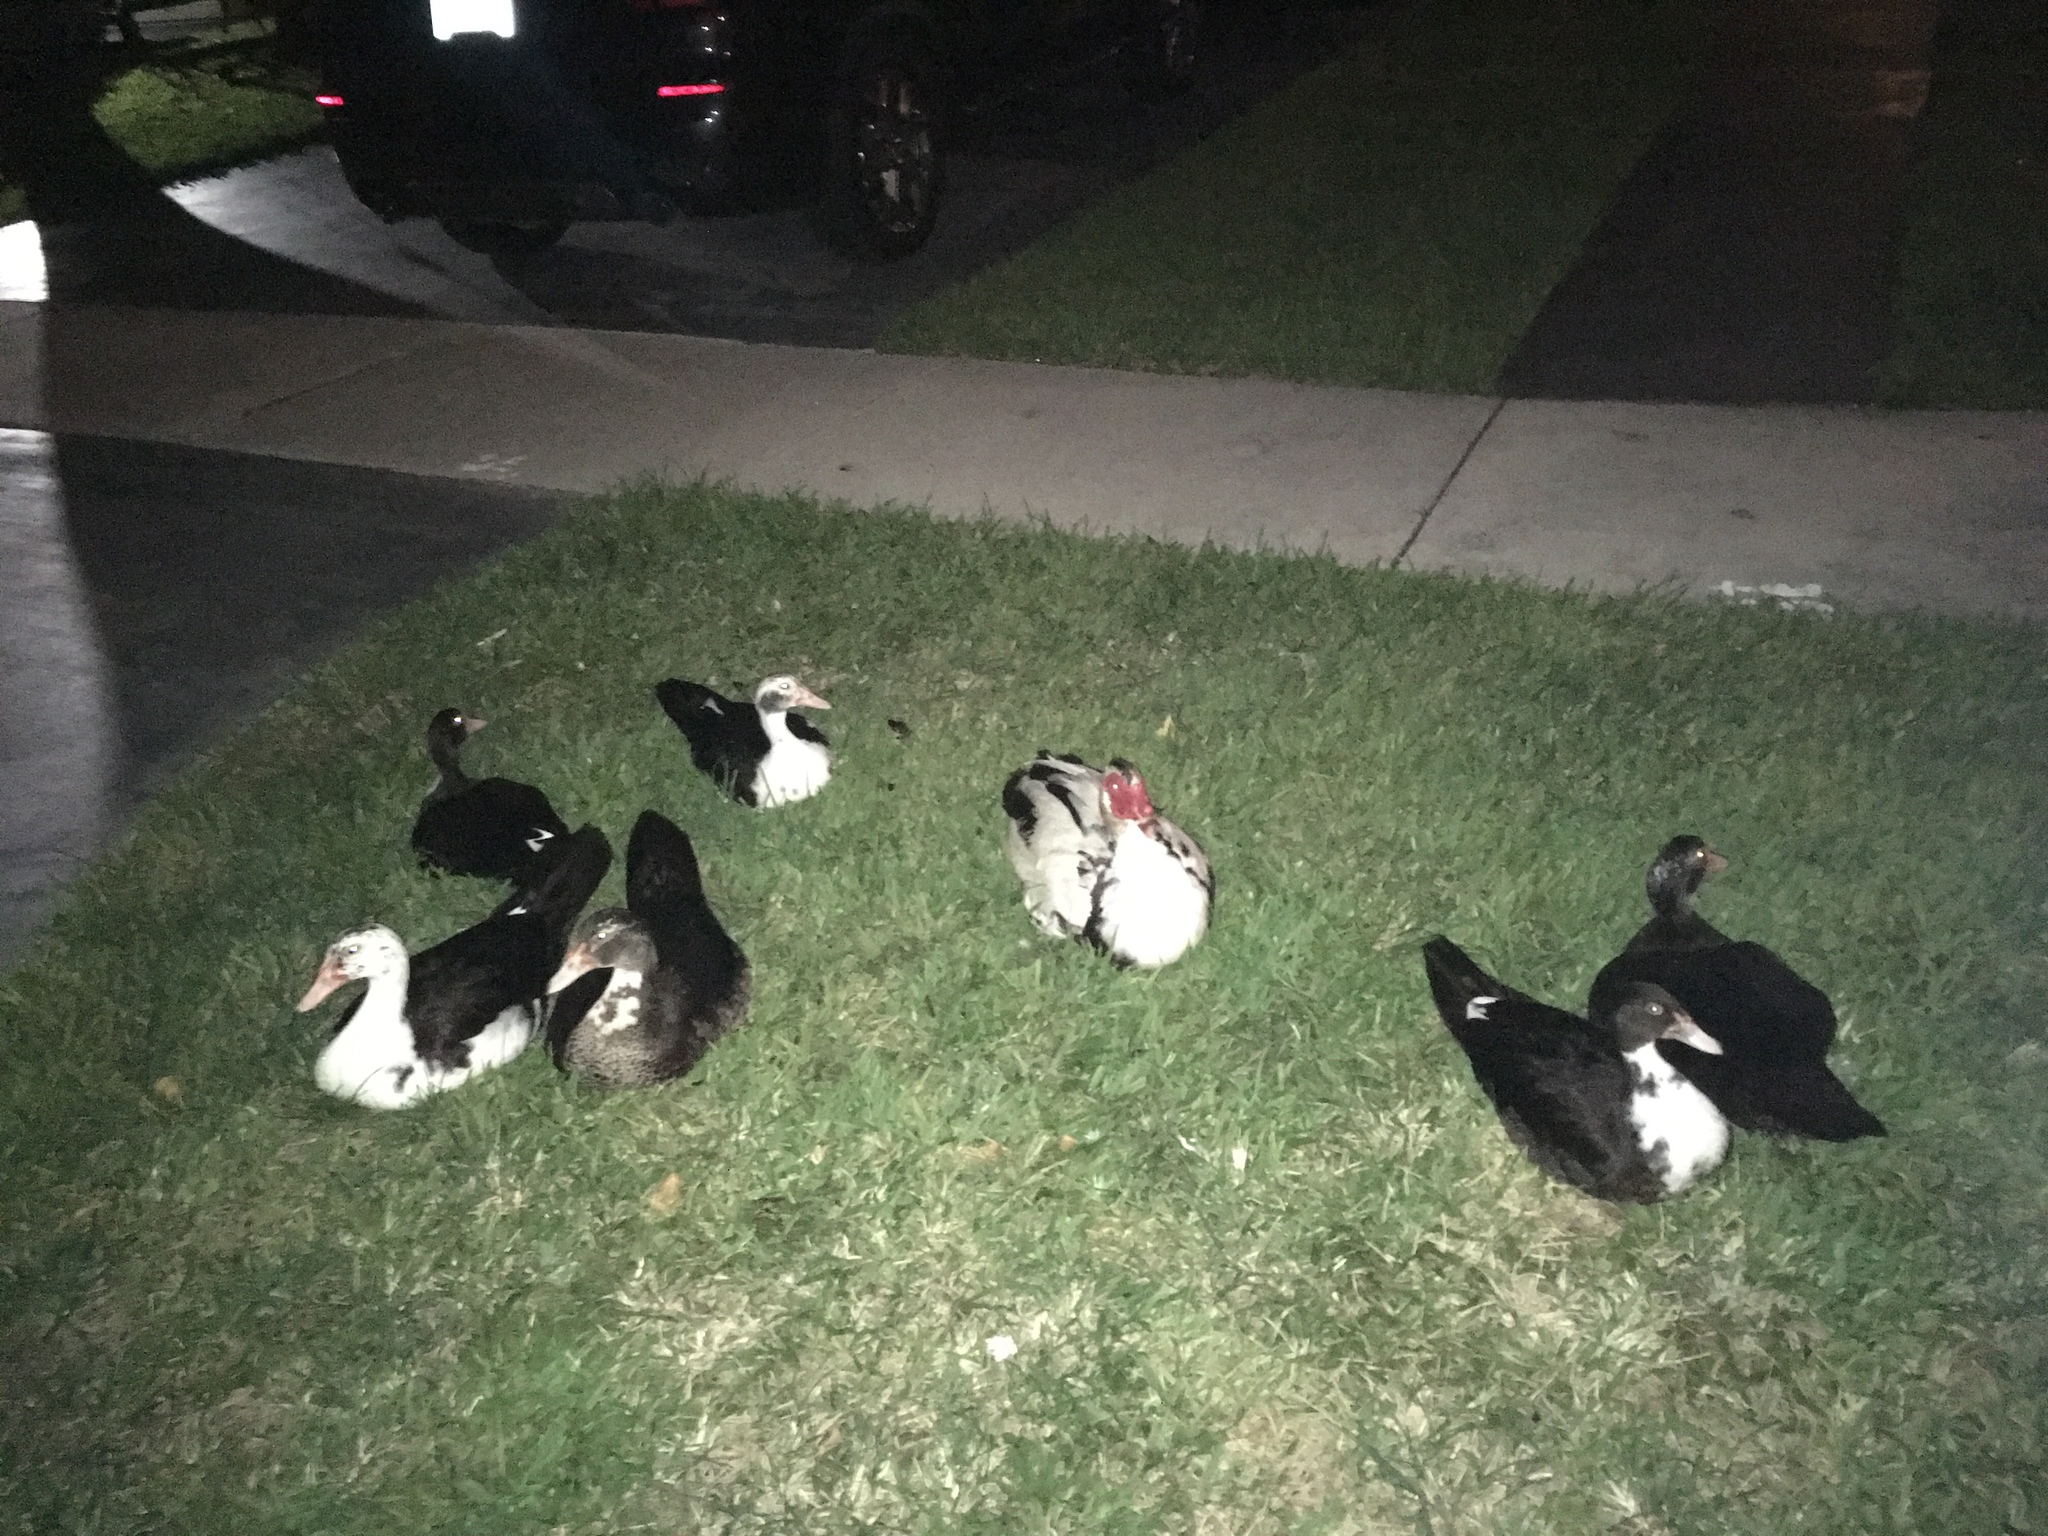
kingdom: Animalia
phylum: Chordata
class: Aves
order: Anseriformes
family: Anatidae
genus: Cairina
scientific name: Cairina moschata
